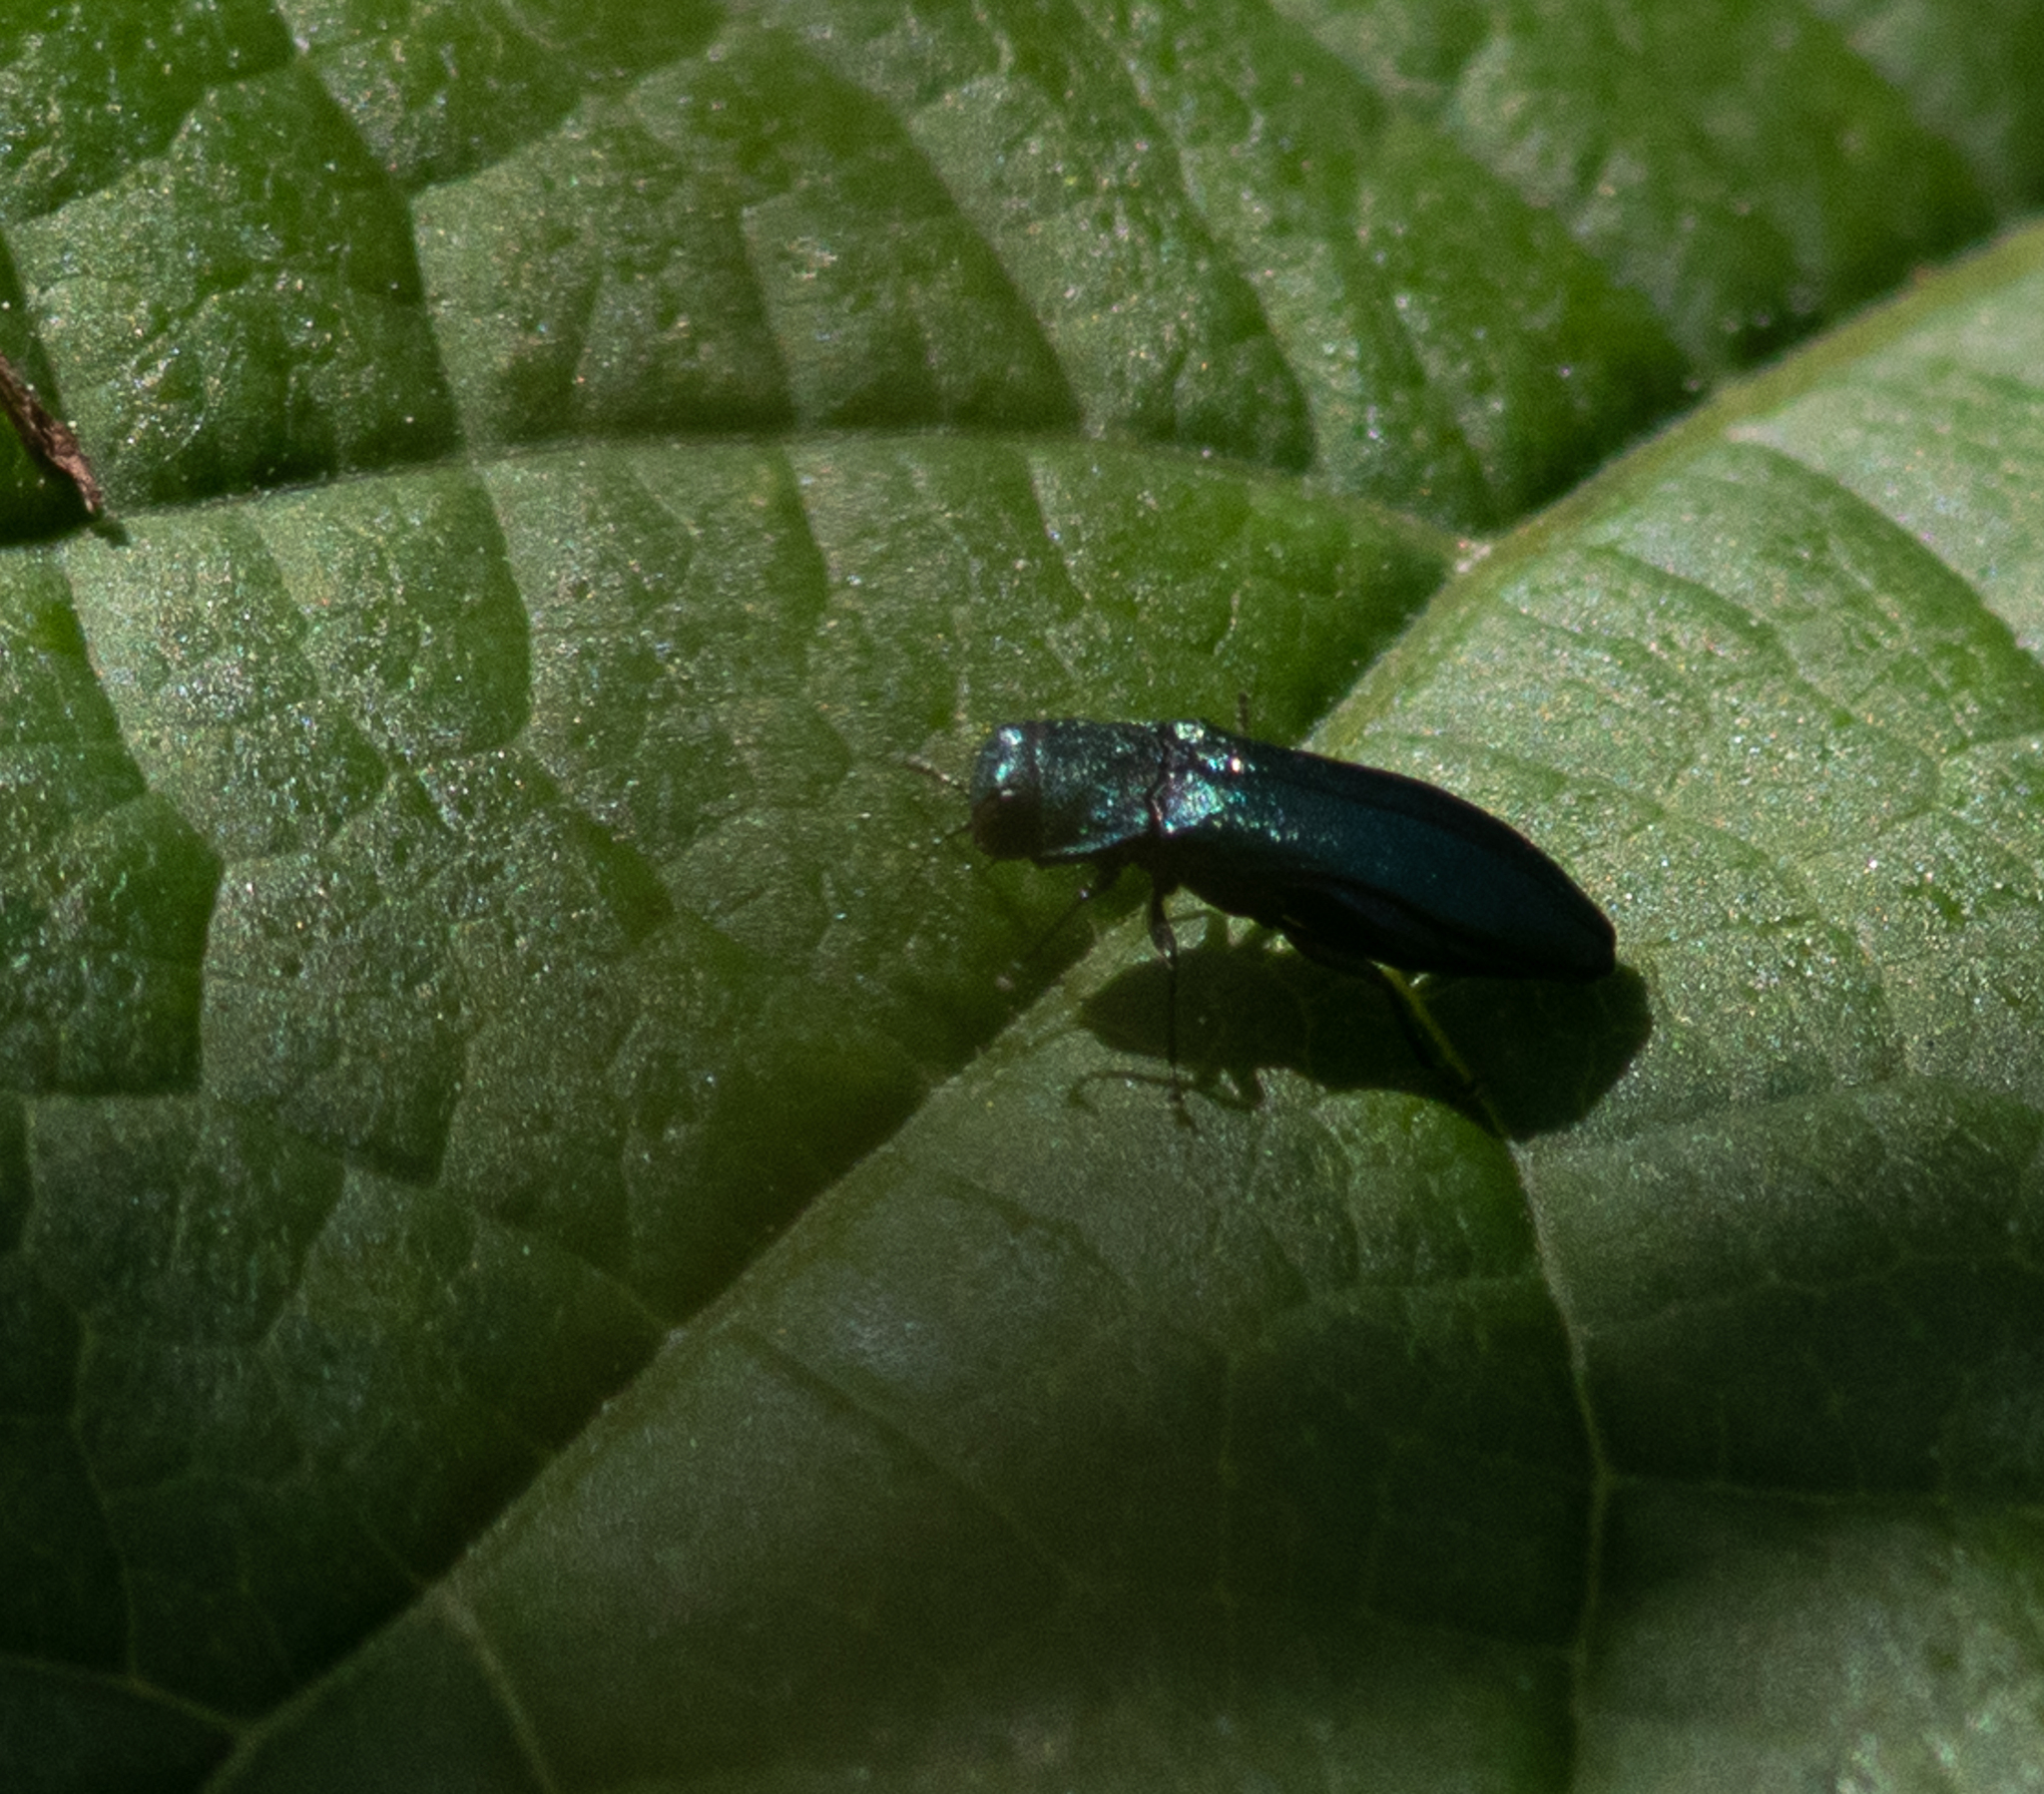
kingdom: Animalia
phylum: Arthropoda
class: Insecta
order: Coleoptera
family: Buprestidae
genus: Agrilus
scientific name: Agrilus cyanescens
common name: Bluish borer beetle
